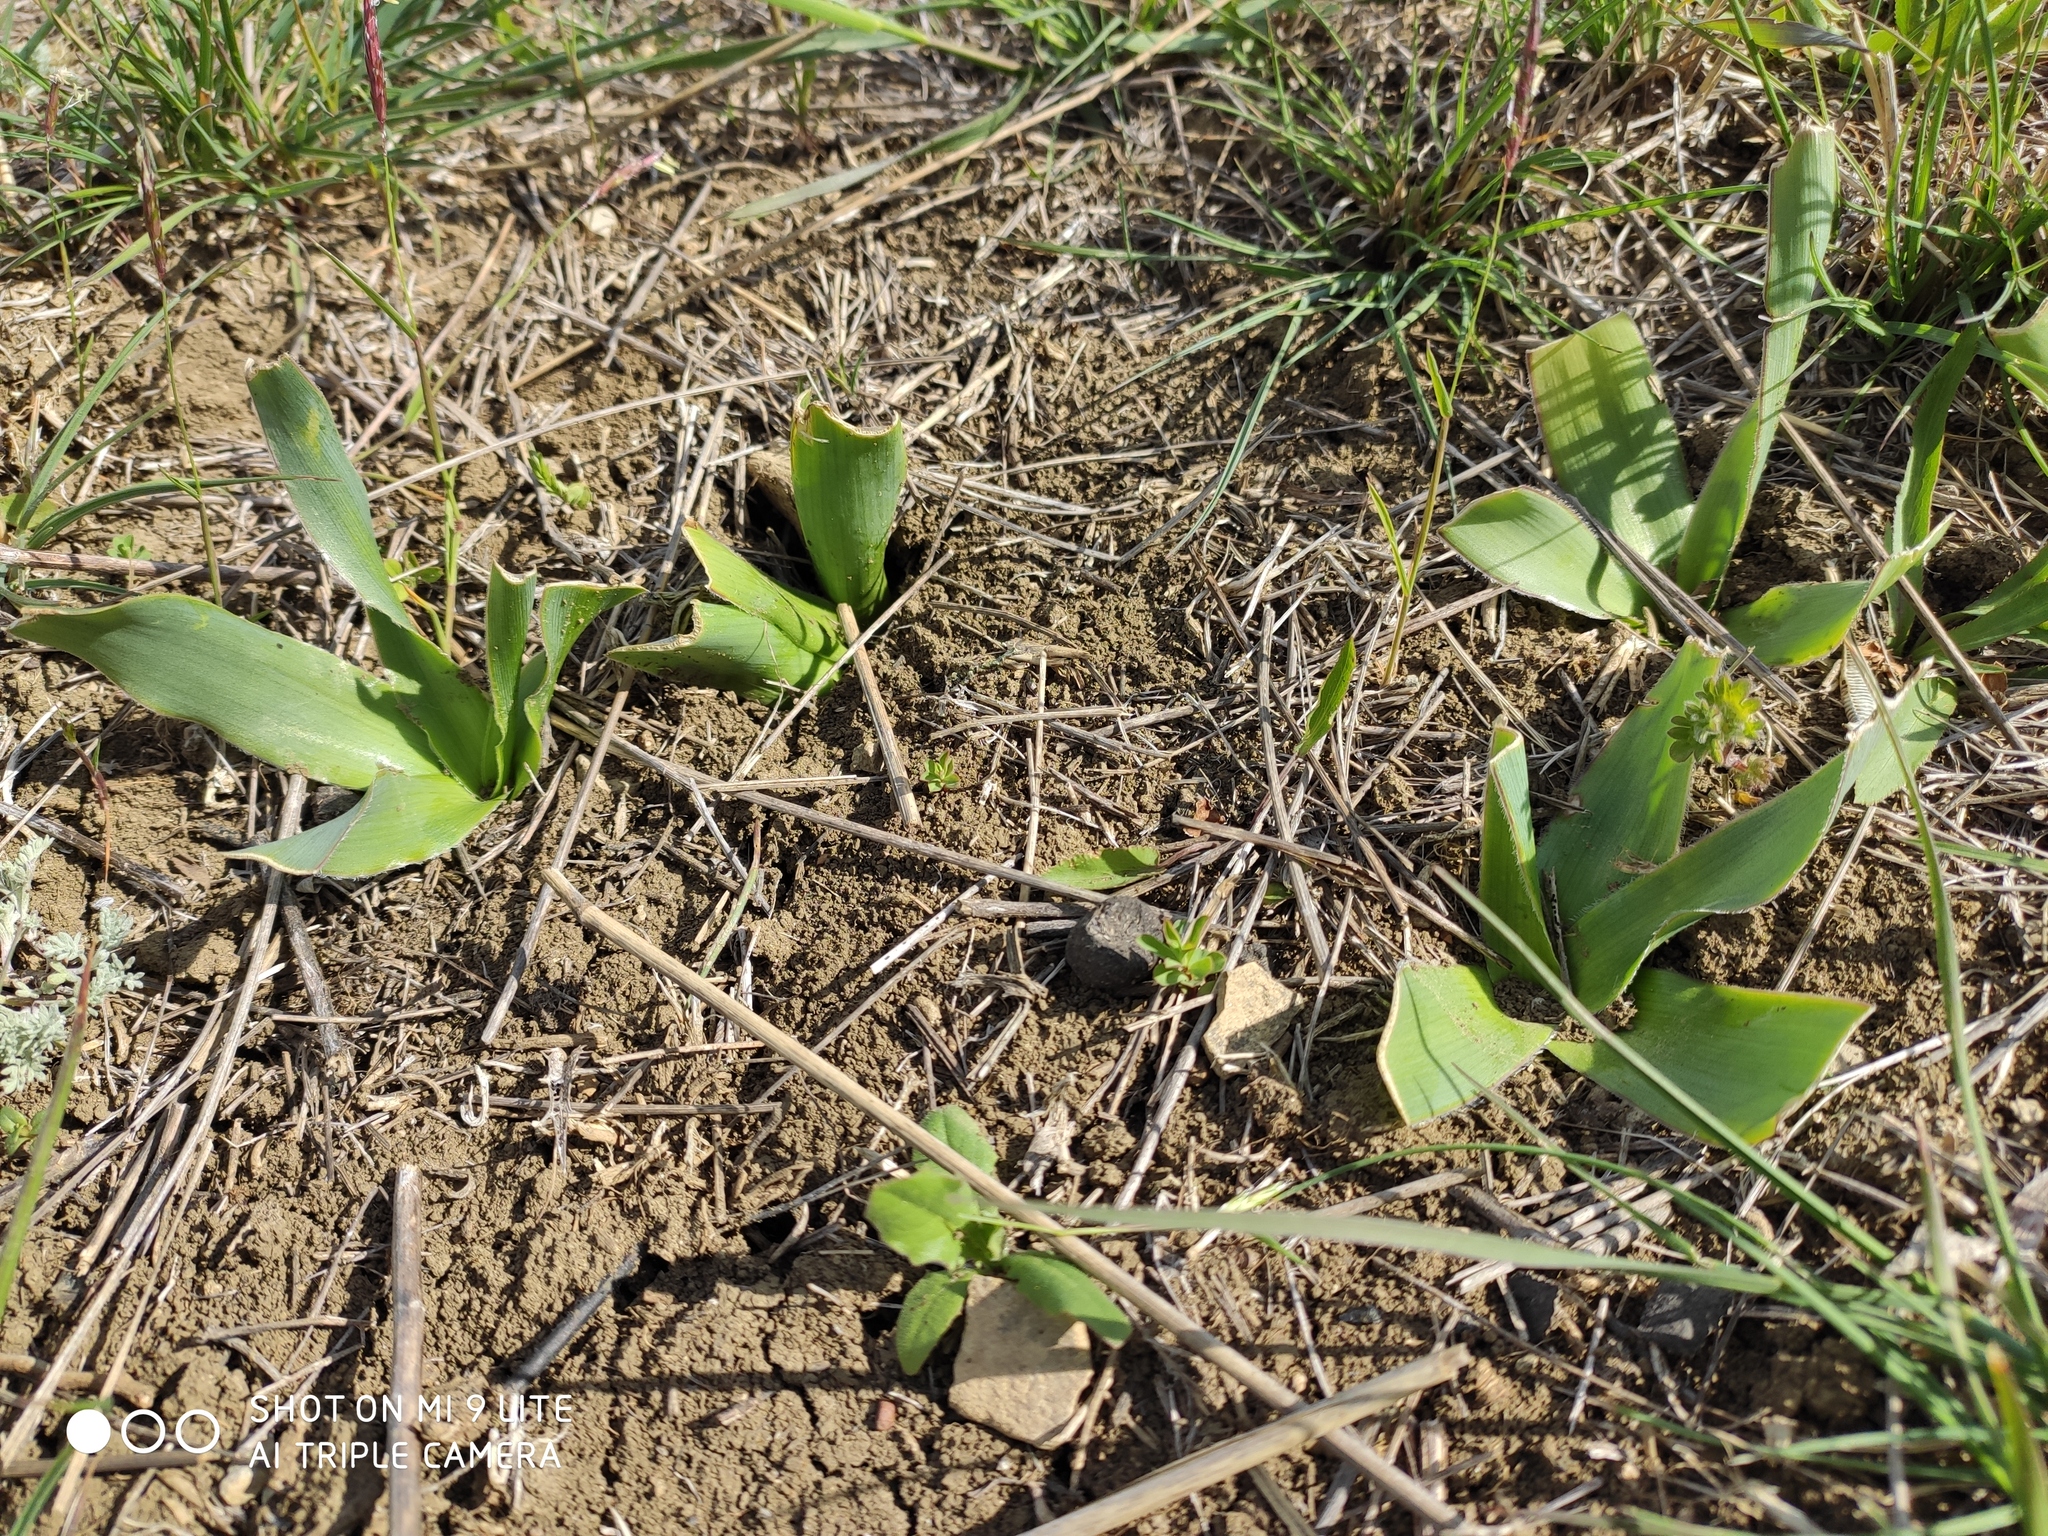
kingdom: Plantae
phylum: Tracheophyta
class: Liliopsida
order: Asparagales
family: Asparagaceae
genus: Bellevalia
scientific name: Bellevalia speciosa
